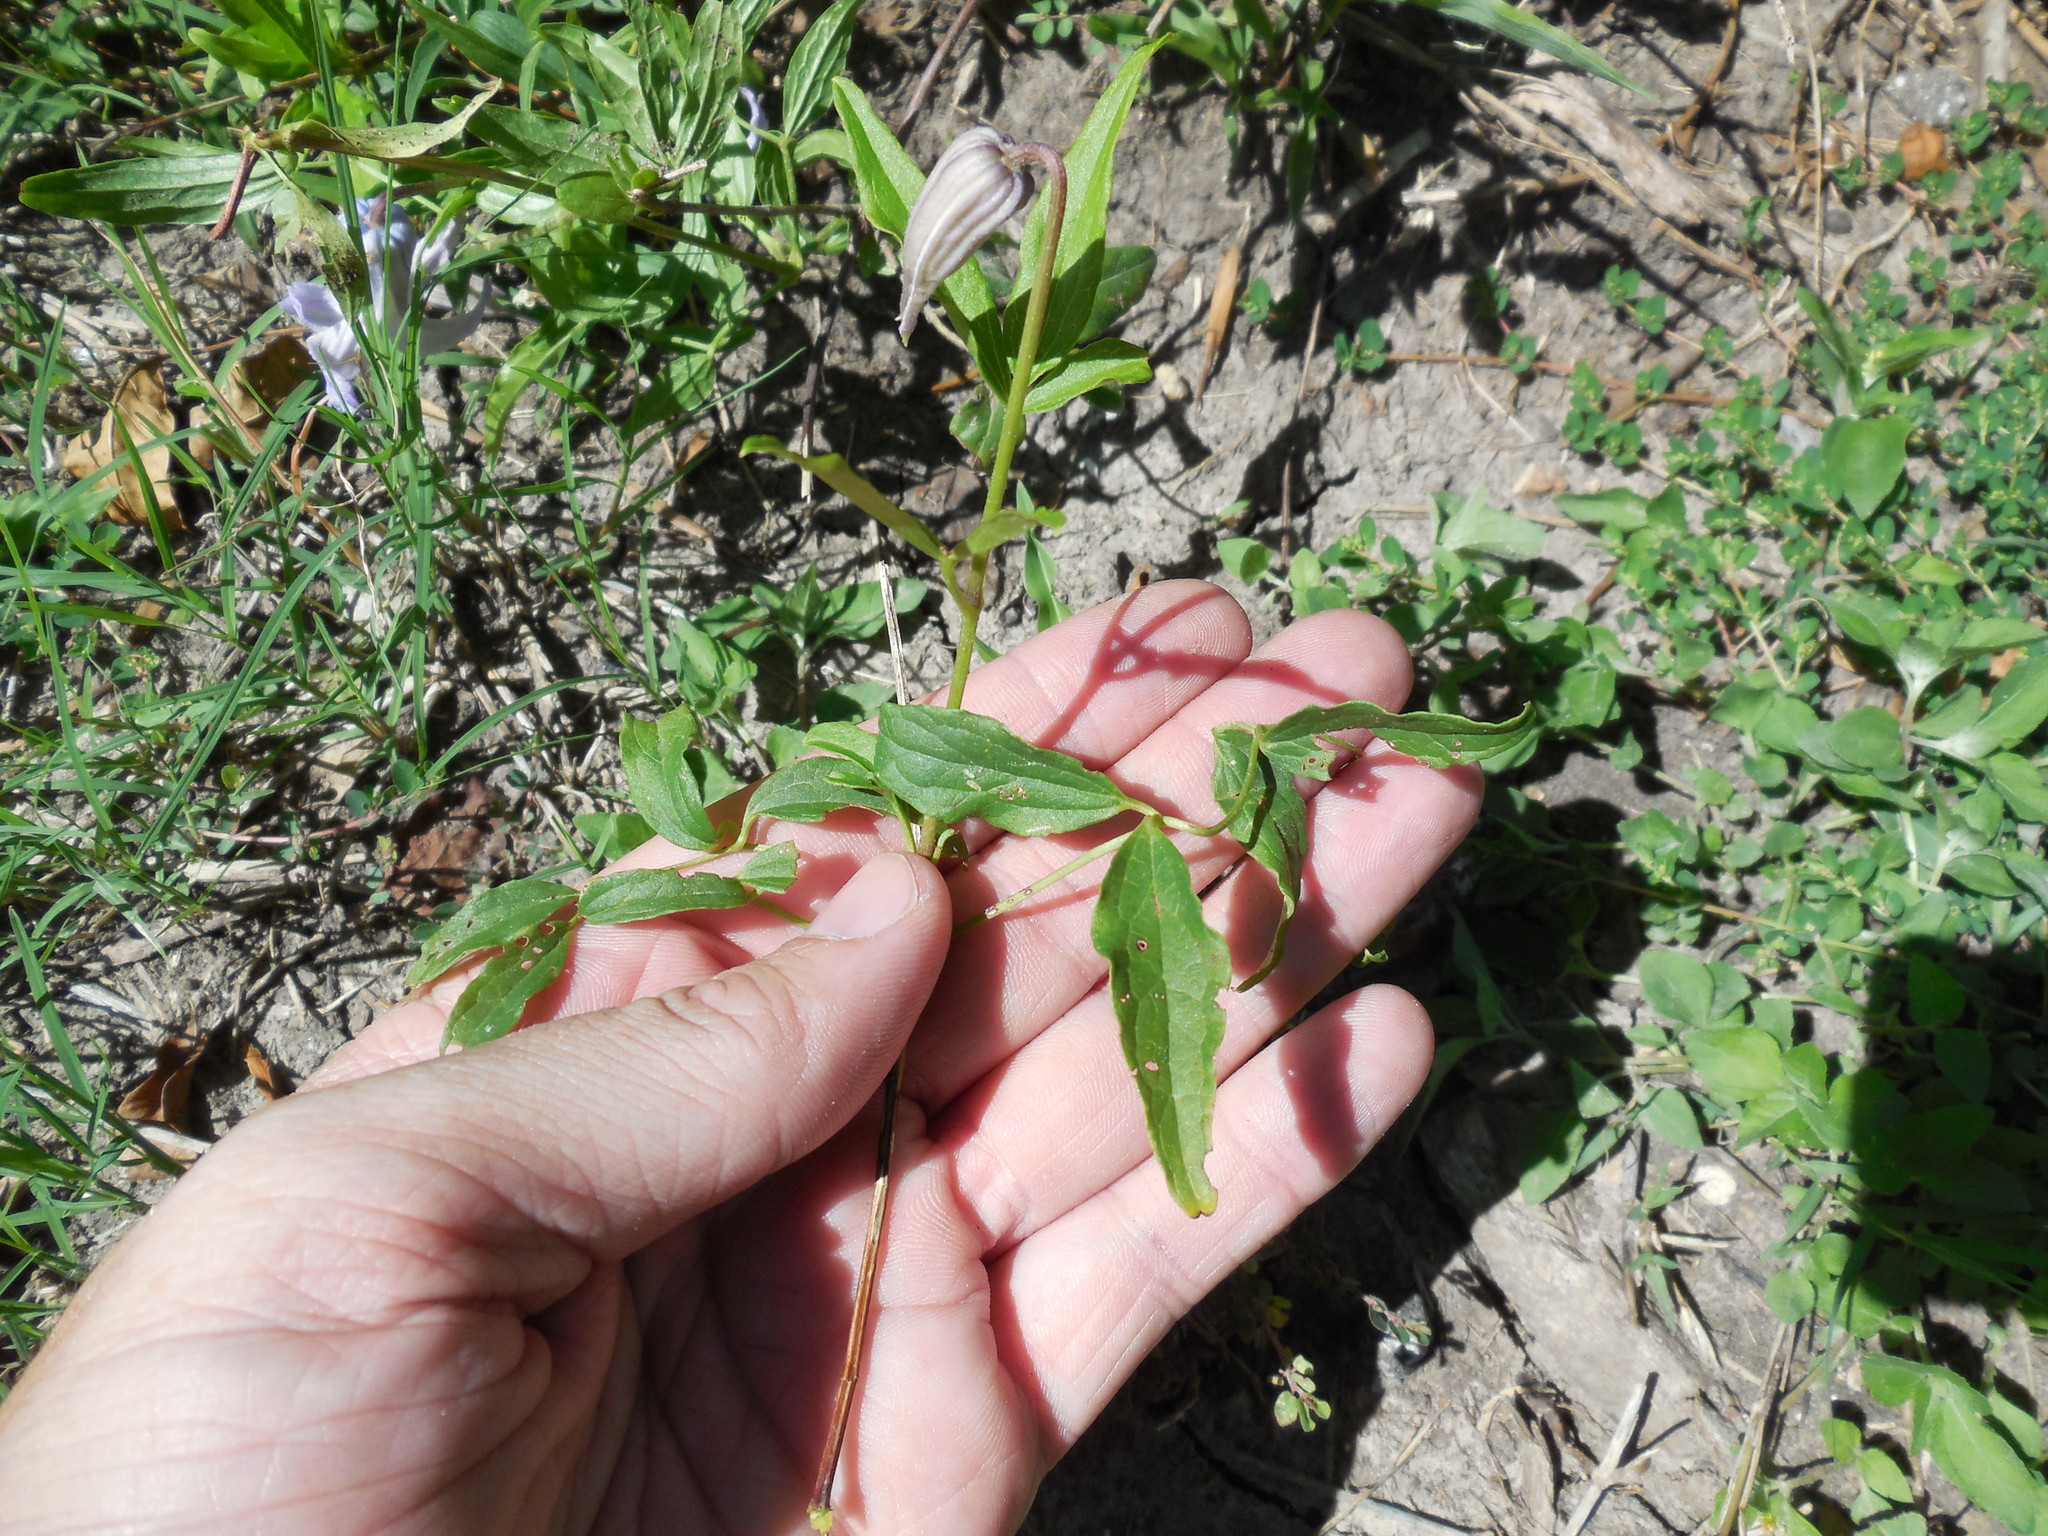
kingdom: Plantae
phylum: Tracheophyta
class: Magnoliopsida
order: Ranunculales
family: Ranunculaceae
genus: Clematis
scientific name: Clematis crispa
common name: Curly clematis
